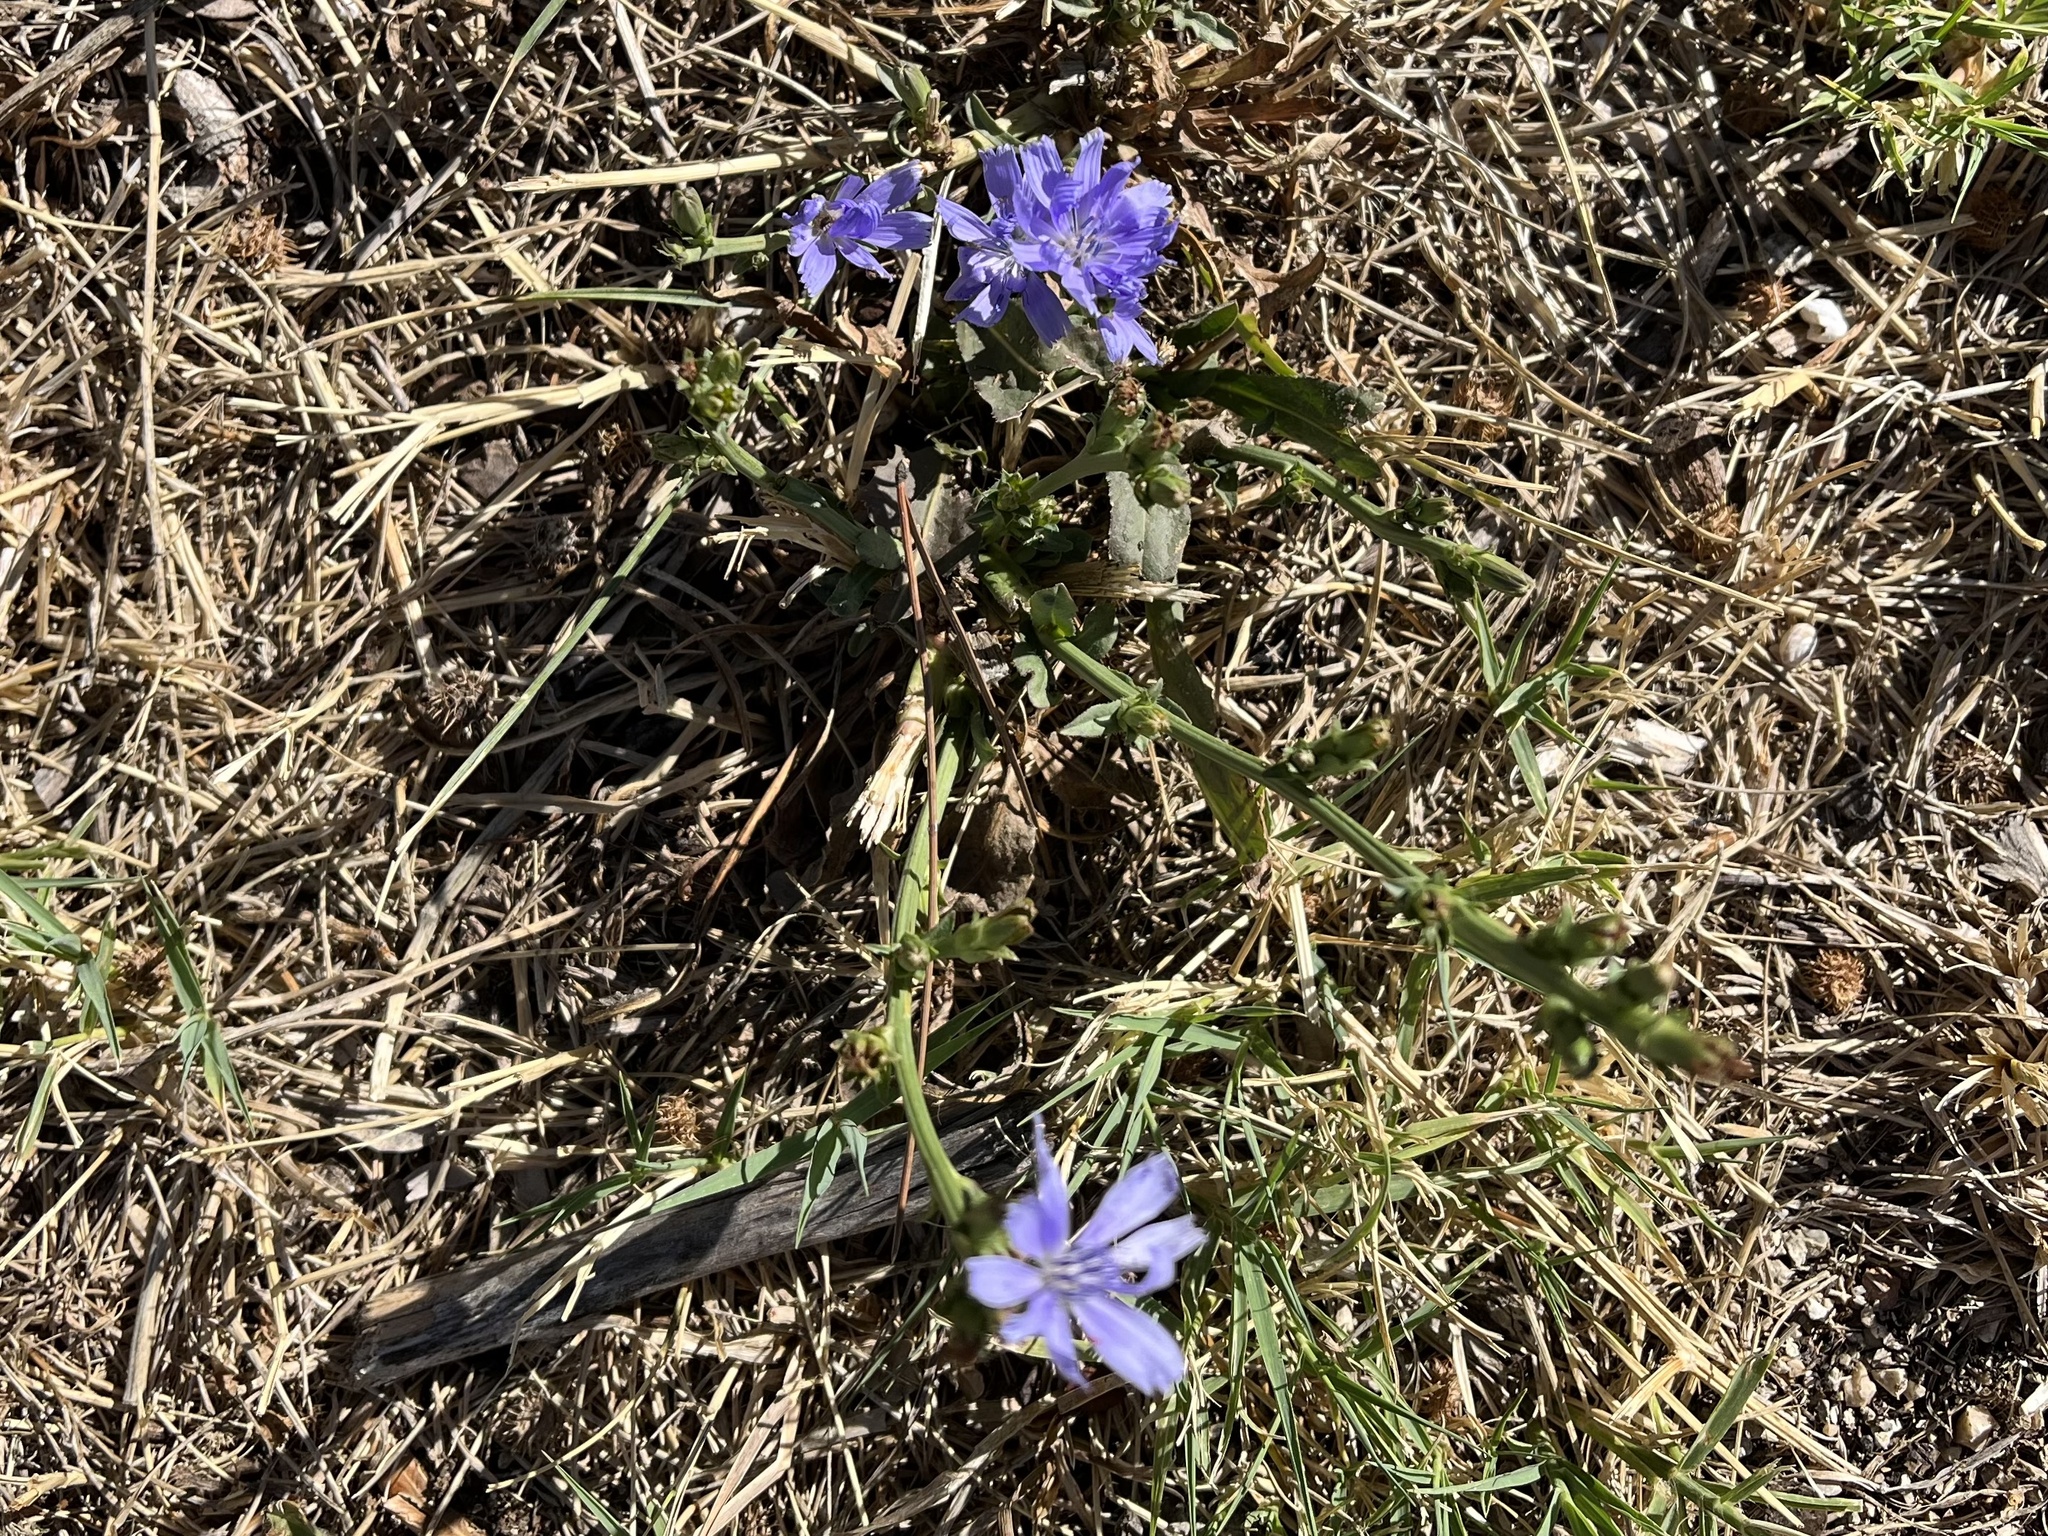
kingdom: Plantae
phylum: Tracheophyta
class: Magnoliopsida
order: Asterales
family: Asteraceae
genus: Cichorium
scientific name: Cichorium intybus
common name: Chicory
